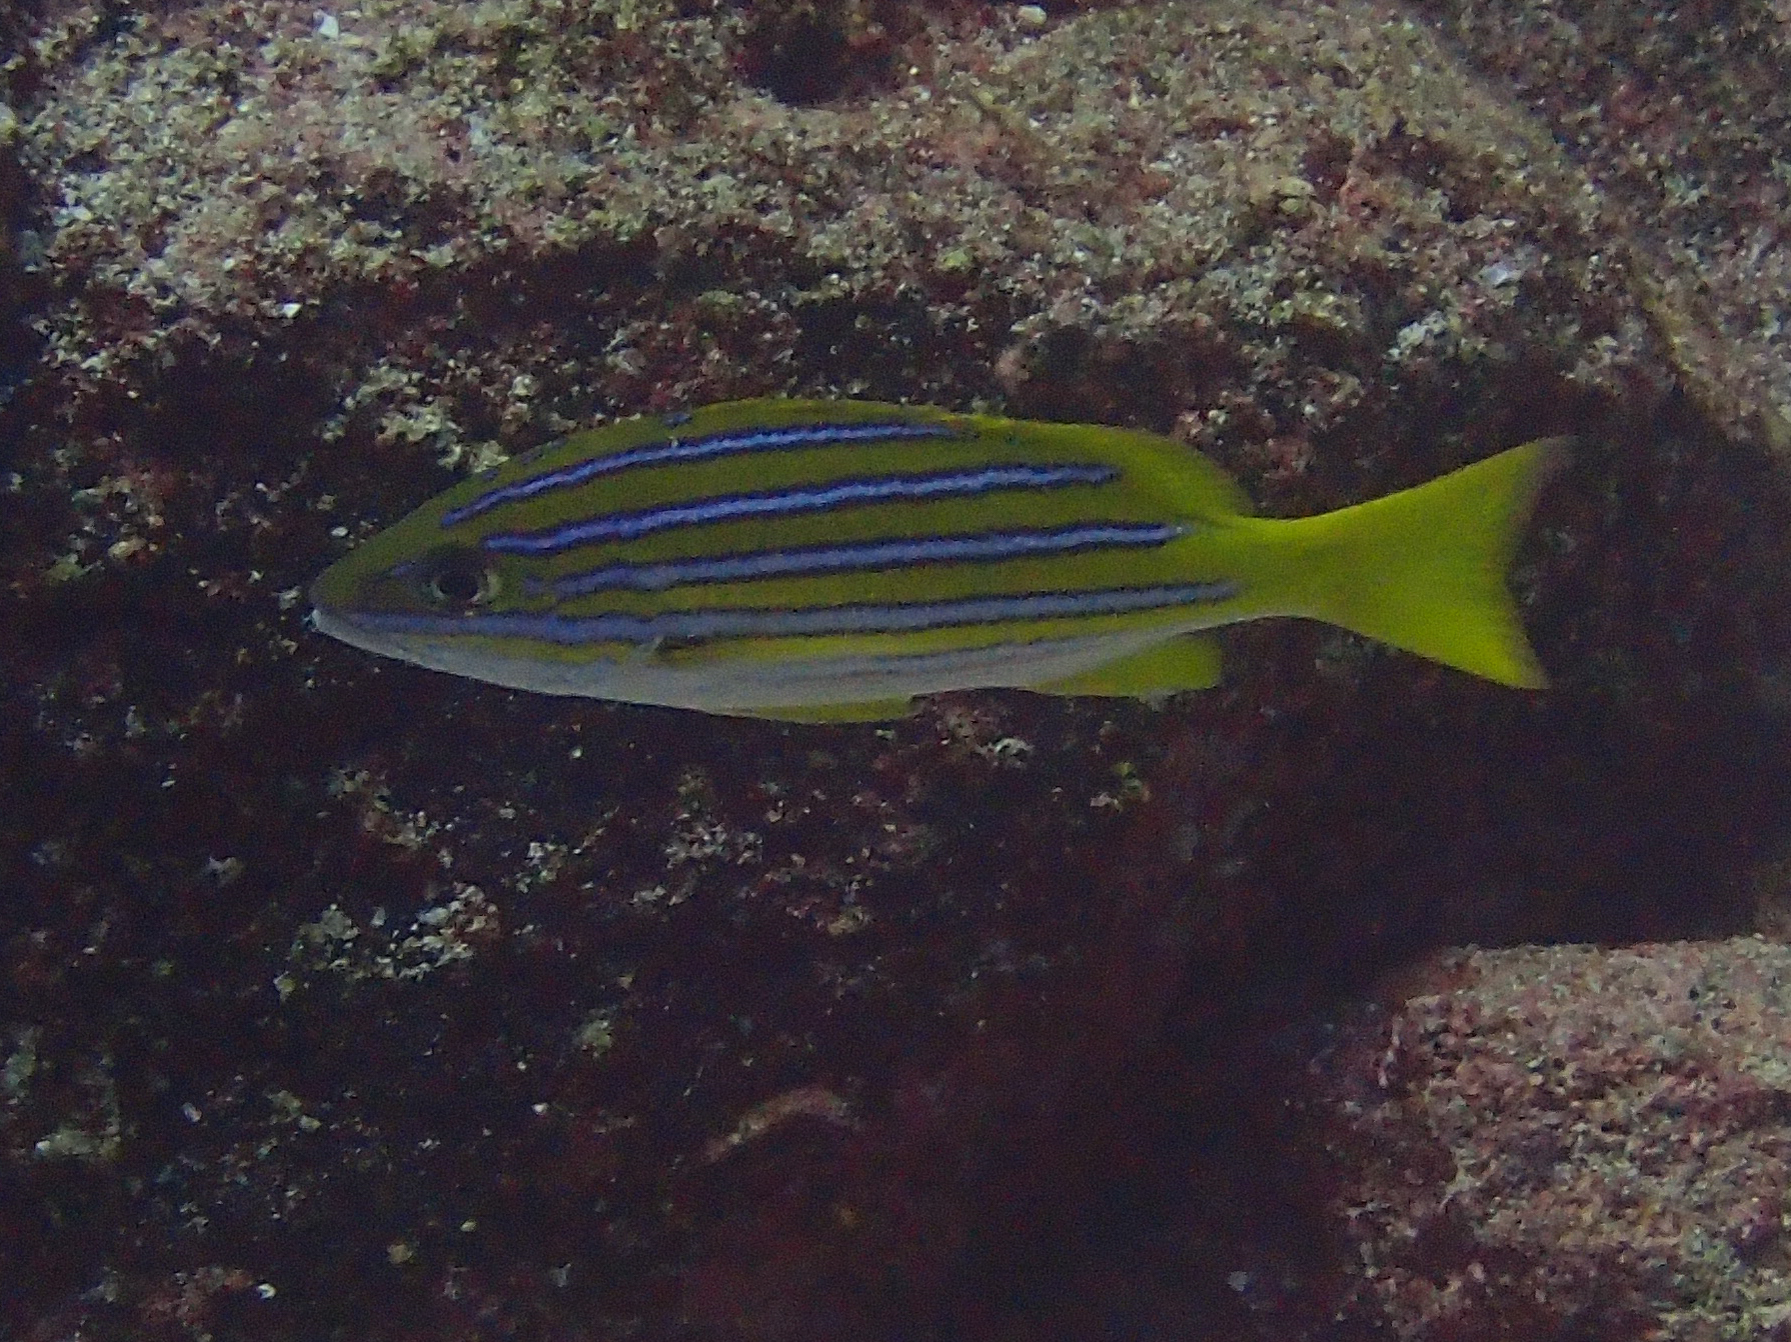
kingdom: Animalia
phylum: Chordata
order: Perciformes
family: Lutjanidae
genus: Lutjanus
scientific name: Lutjanus viridis
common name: Blue and gold snapper
